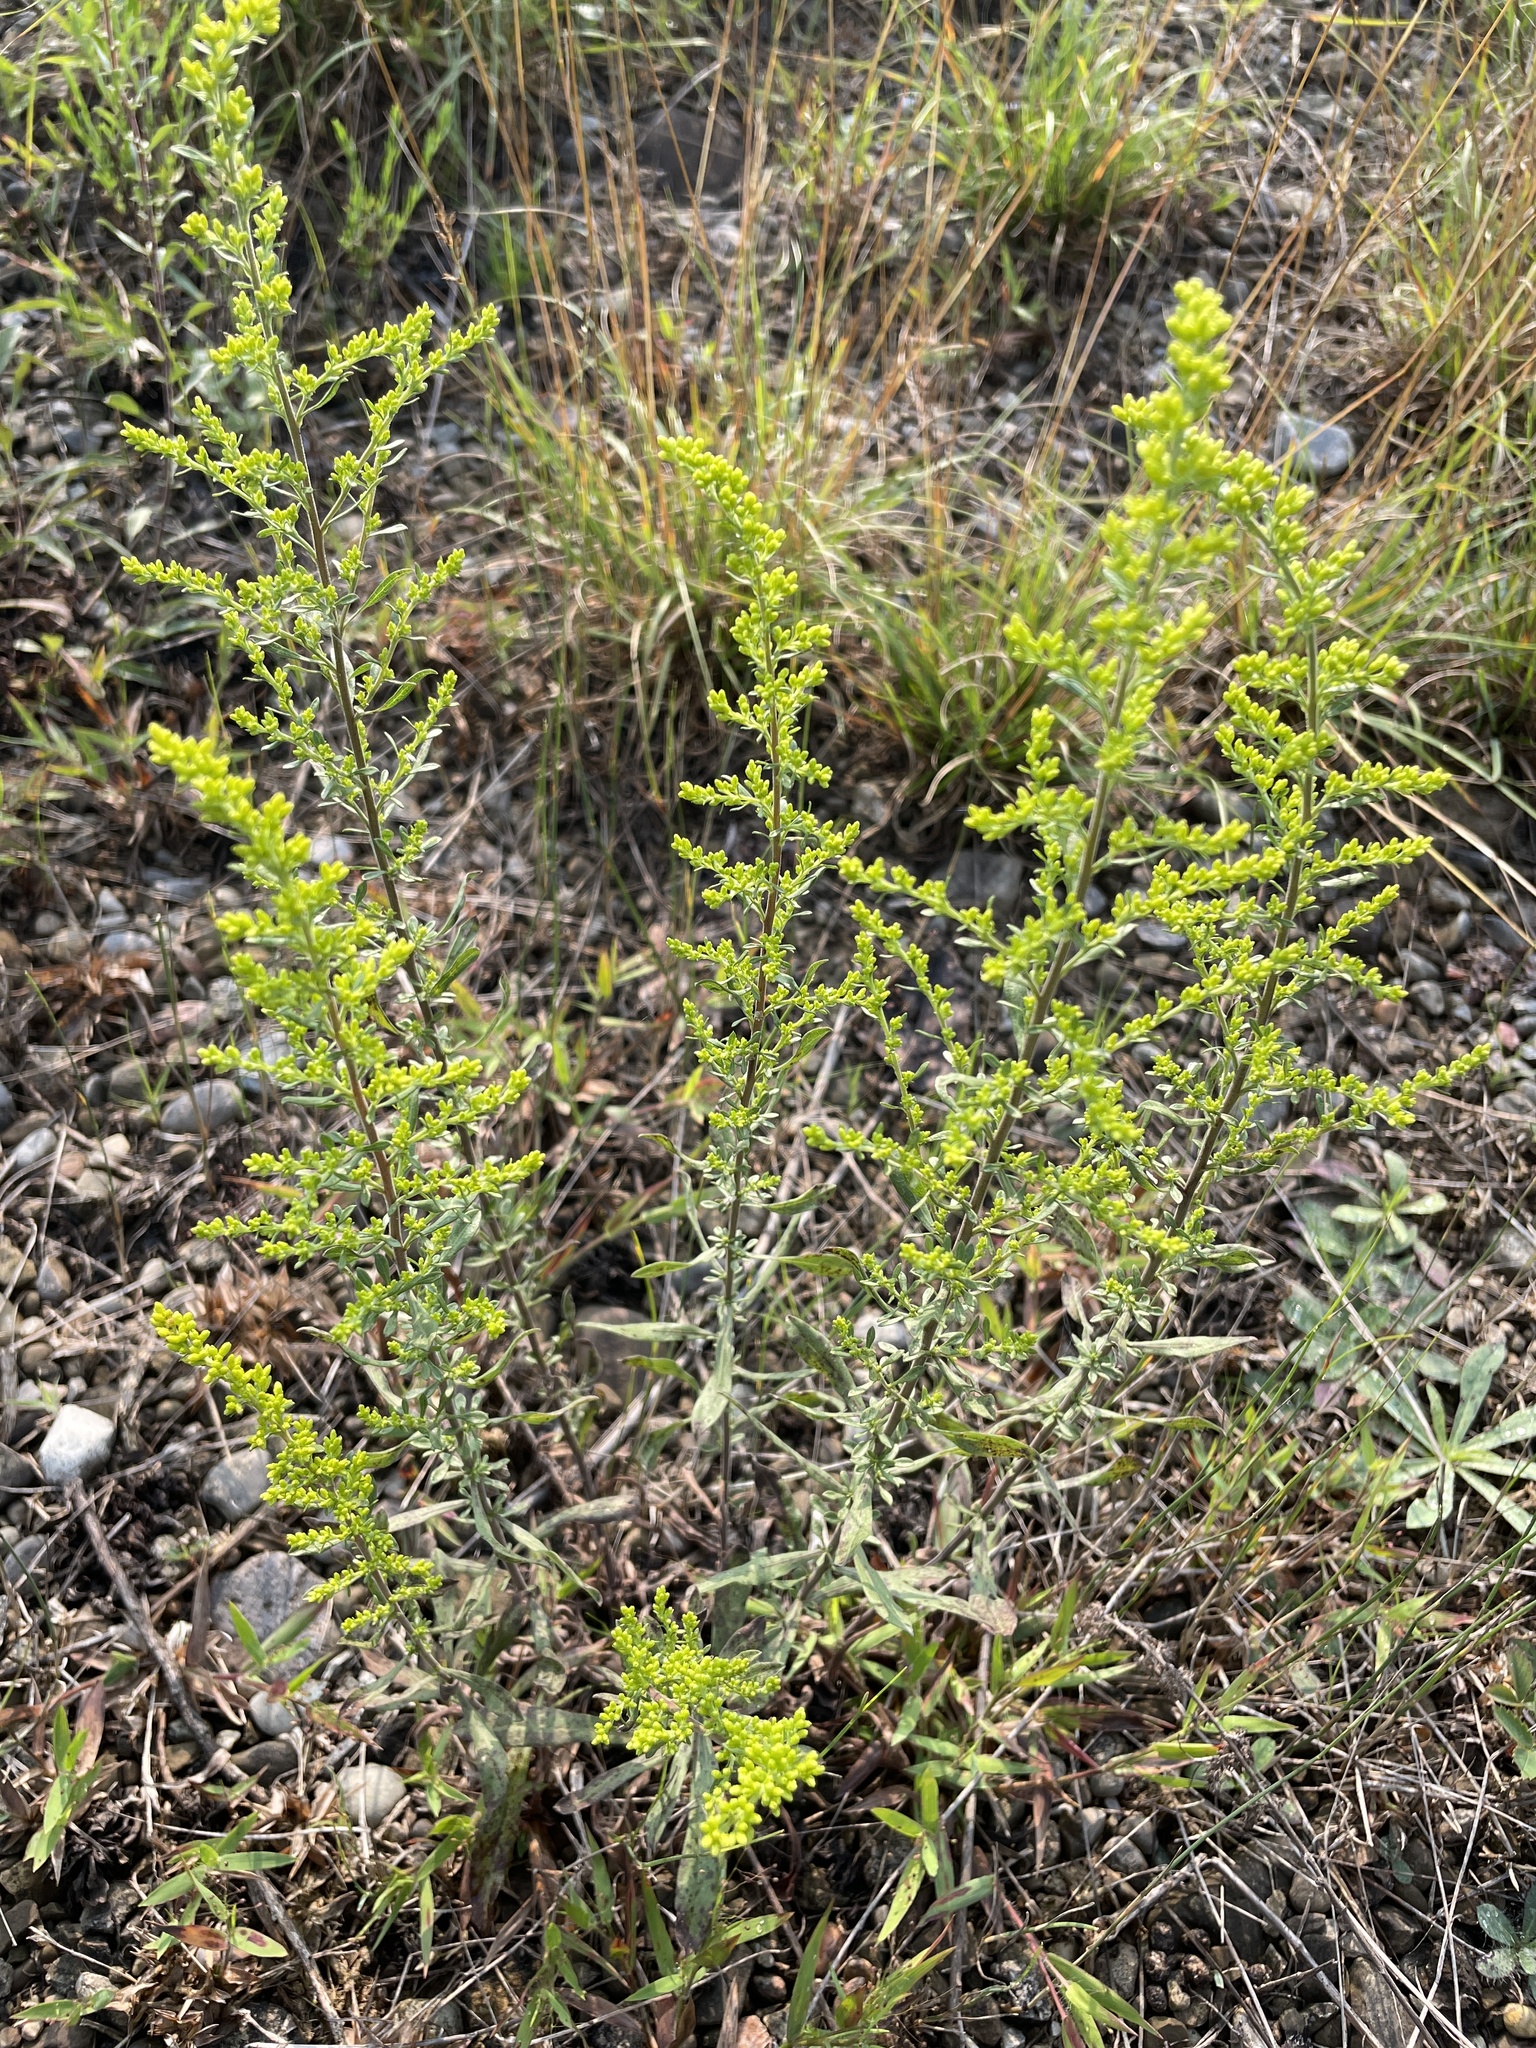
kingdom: Plantae
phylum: Tracheophyta
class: Magnoliopsida
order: Asterales
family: Asteraceae
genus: Solidago
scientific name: Solidago nemoralis
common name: Grey goldenrod
